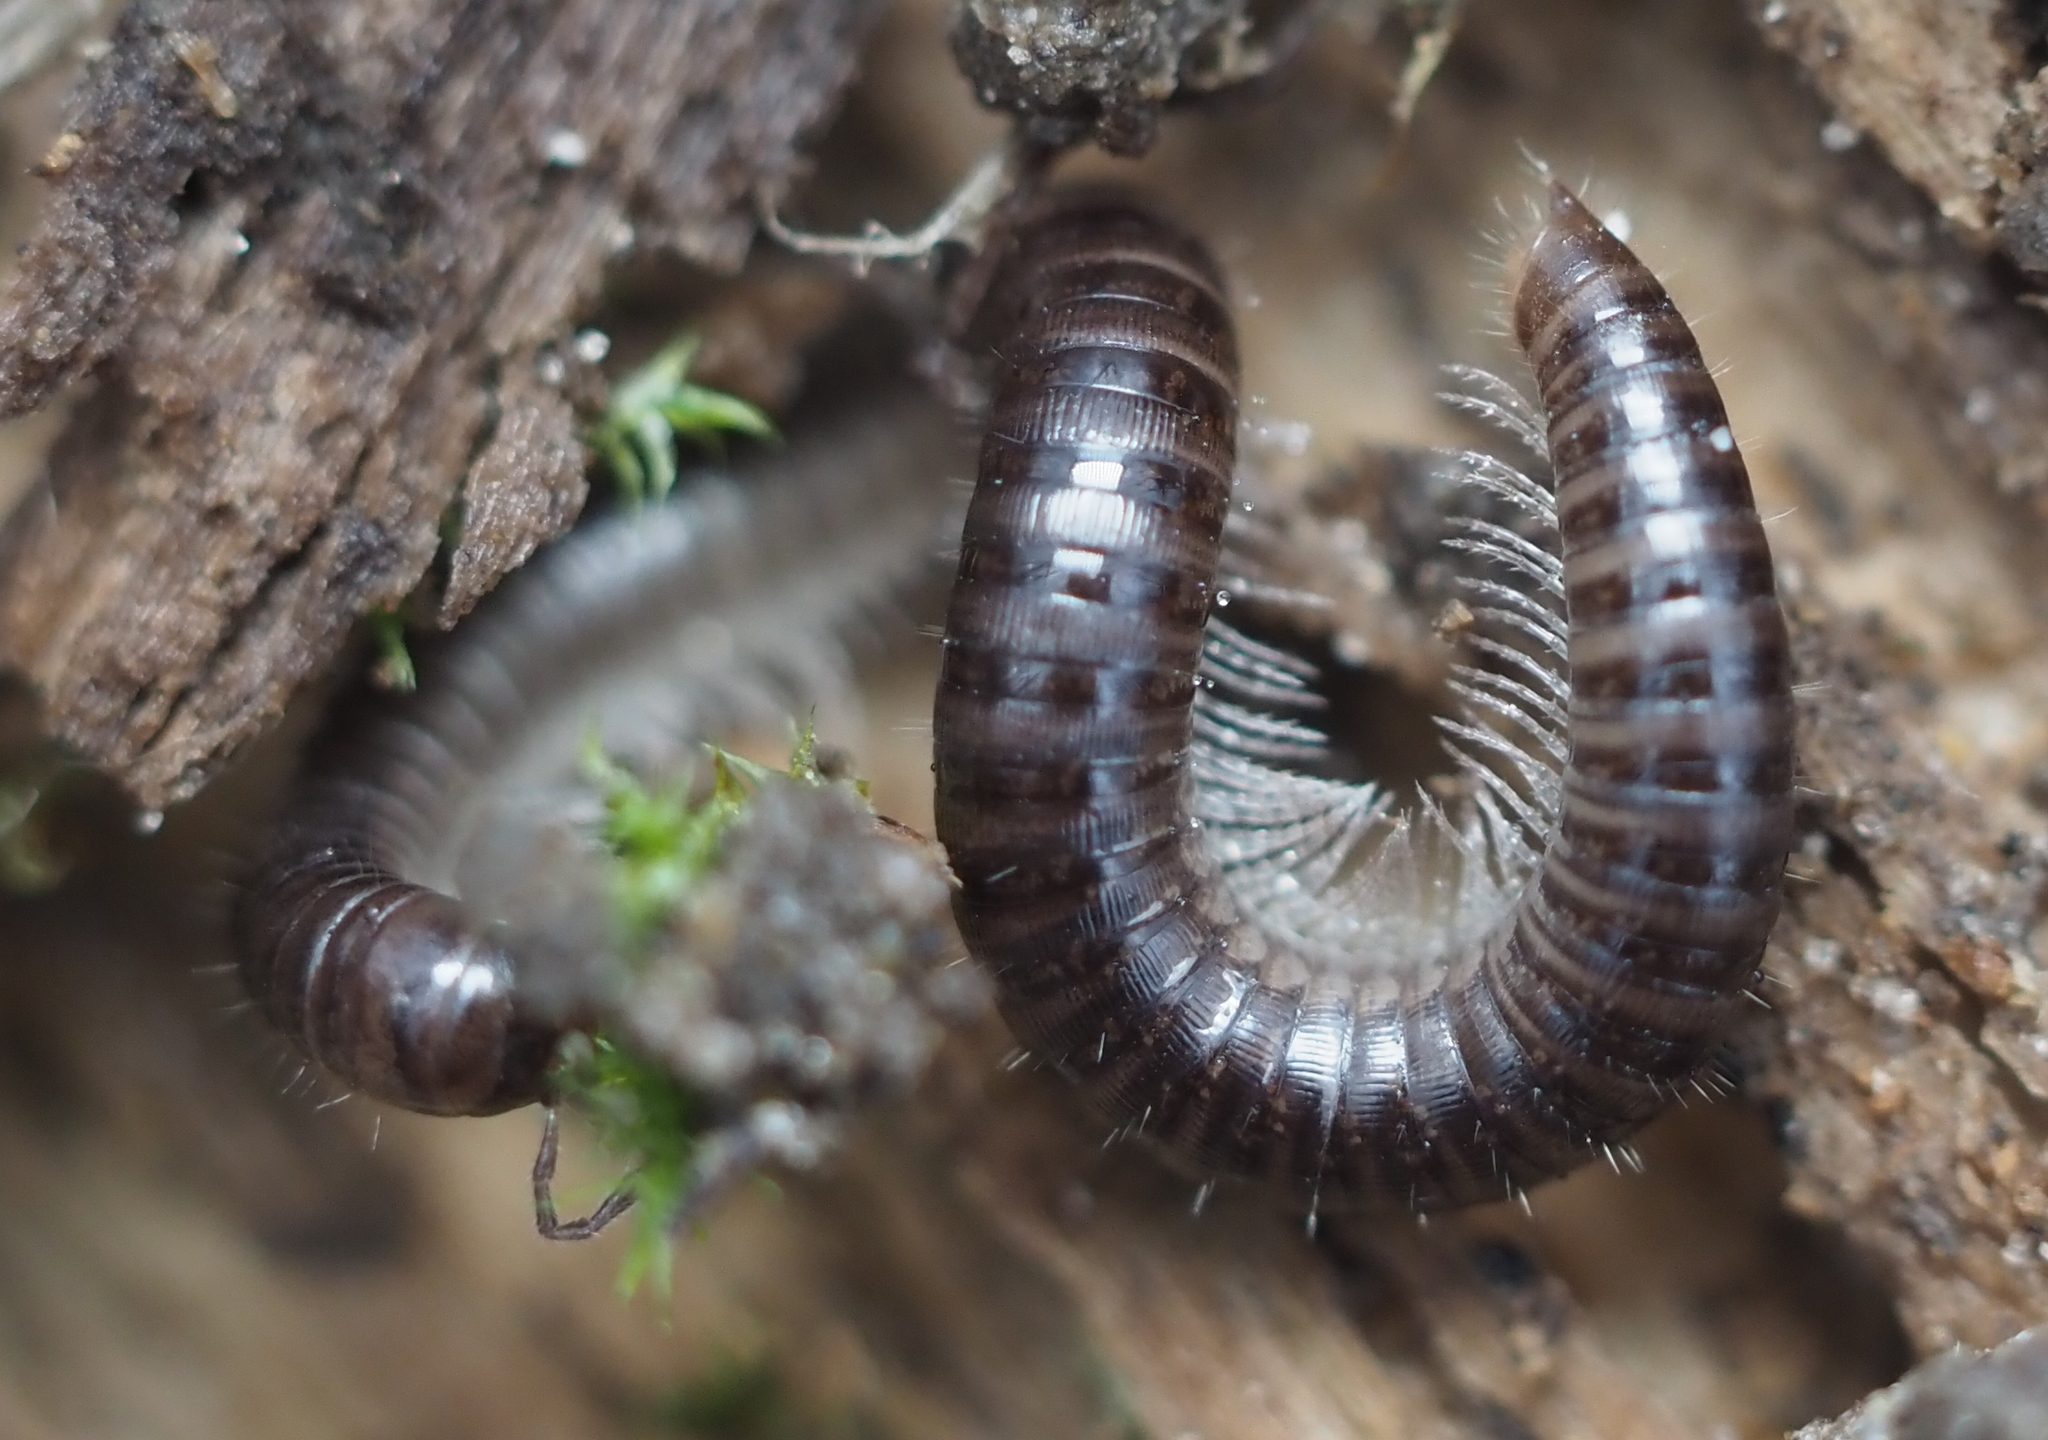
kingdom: Animalia
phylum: Arthropoda
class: Diplopoda
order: Julida
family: Julidae
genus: Ophyiulus
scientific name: Ophyiulus pilosus
